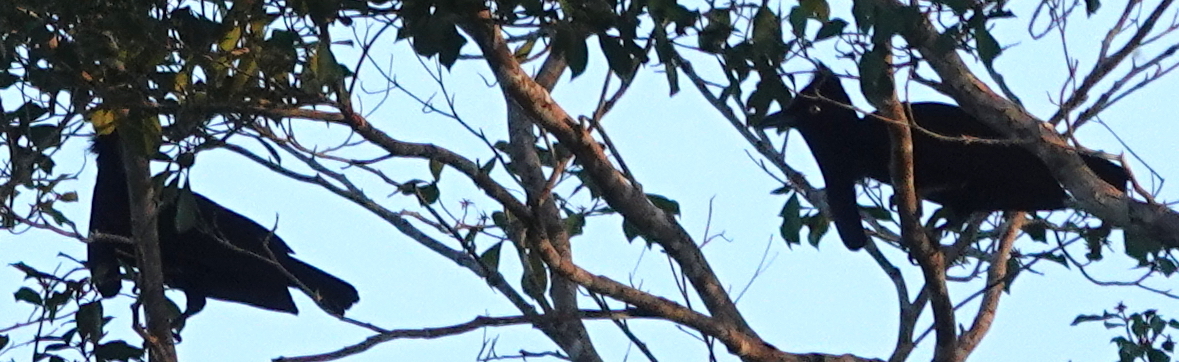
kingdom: Animalia
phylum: Chordata
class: Aves
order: Passeriformes
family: Cotingidae
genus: Cephalopterus
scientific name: Cephalopterus ornatus
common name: Amazonian umbrellabird
